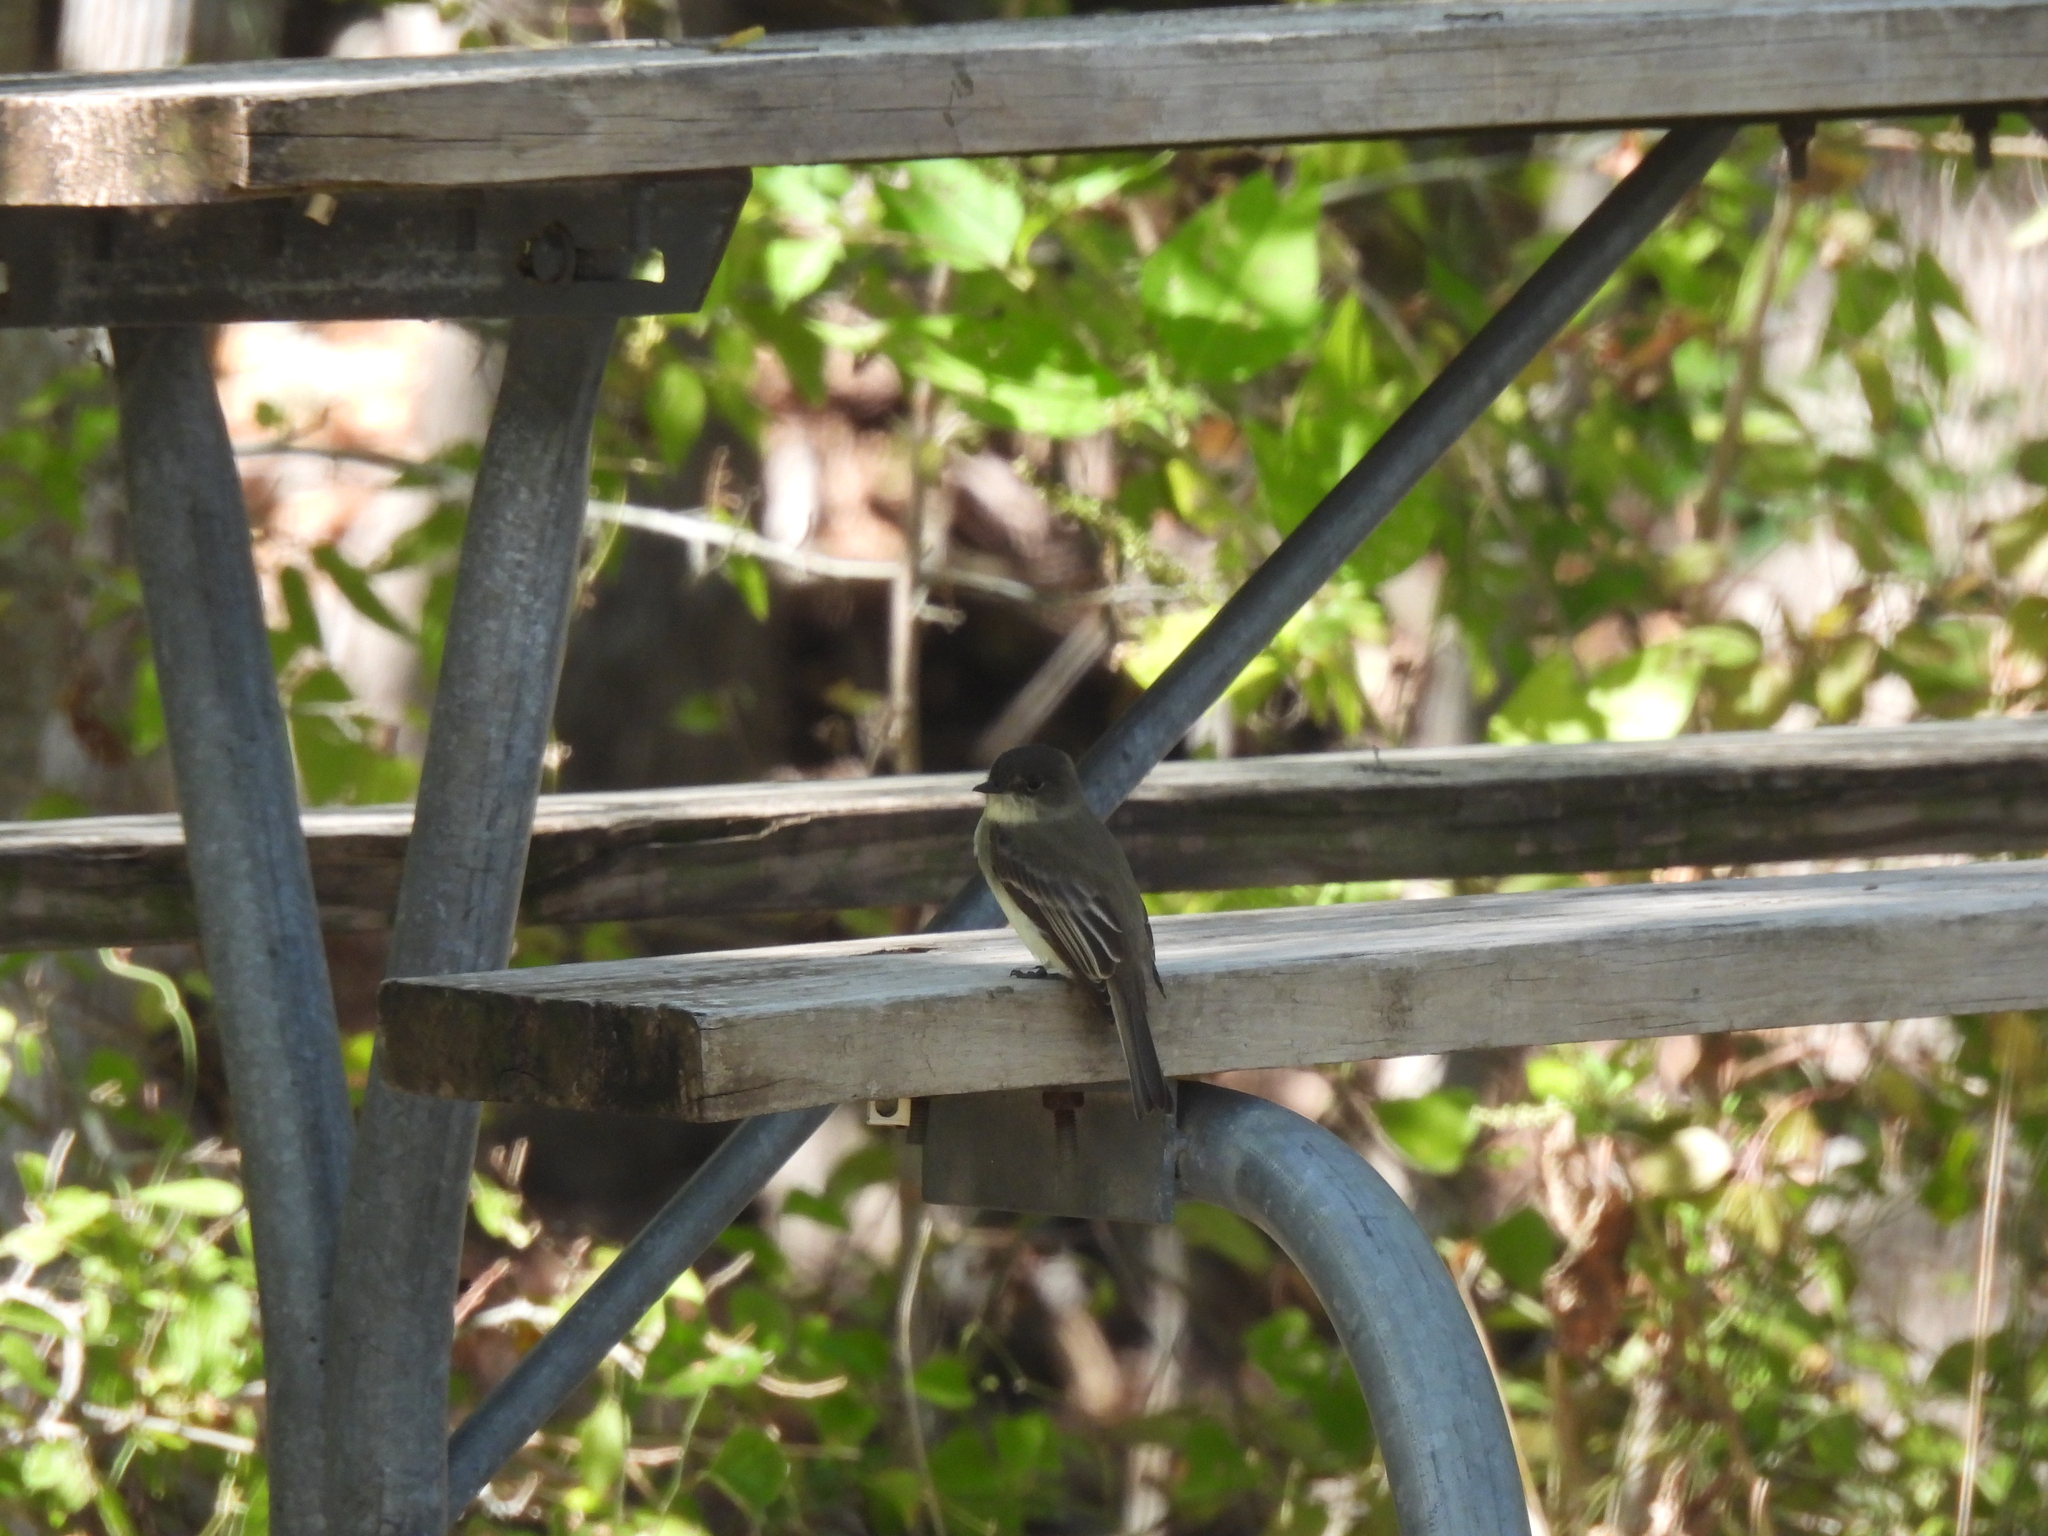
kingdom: Animalia
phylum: Chordata
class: Aves
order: Passeriformes
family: Tyrannidae
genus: Sayornis
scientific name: Sayornis phoebe
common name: Eastern phoebe
